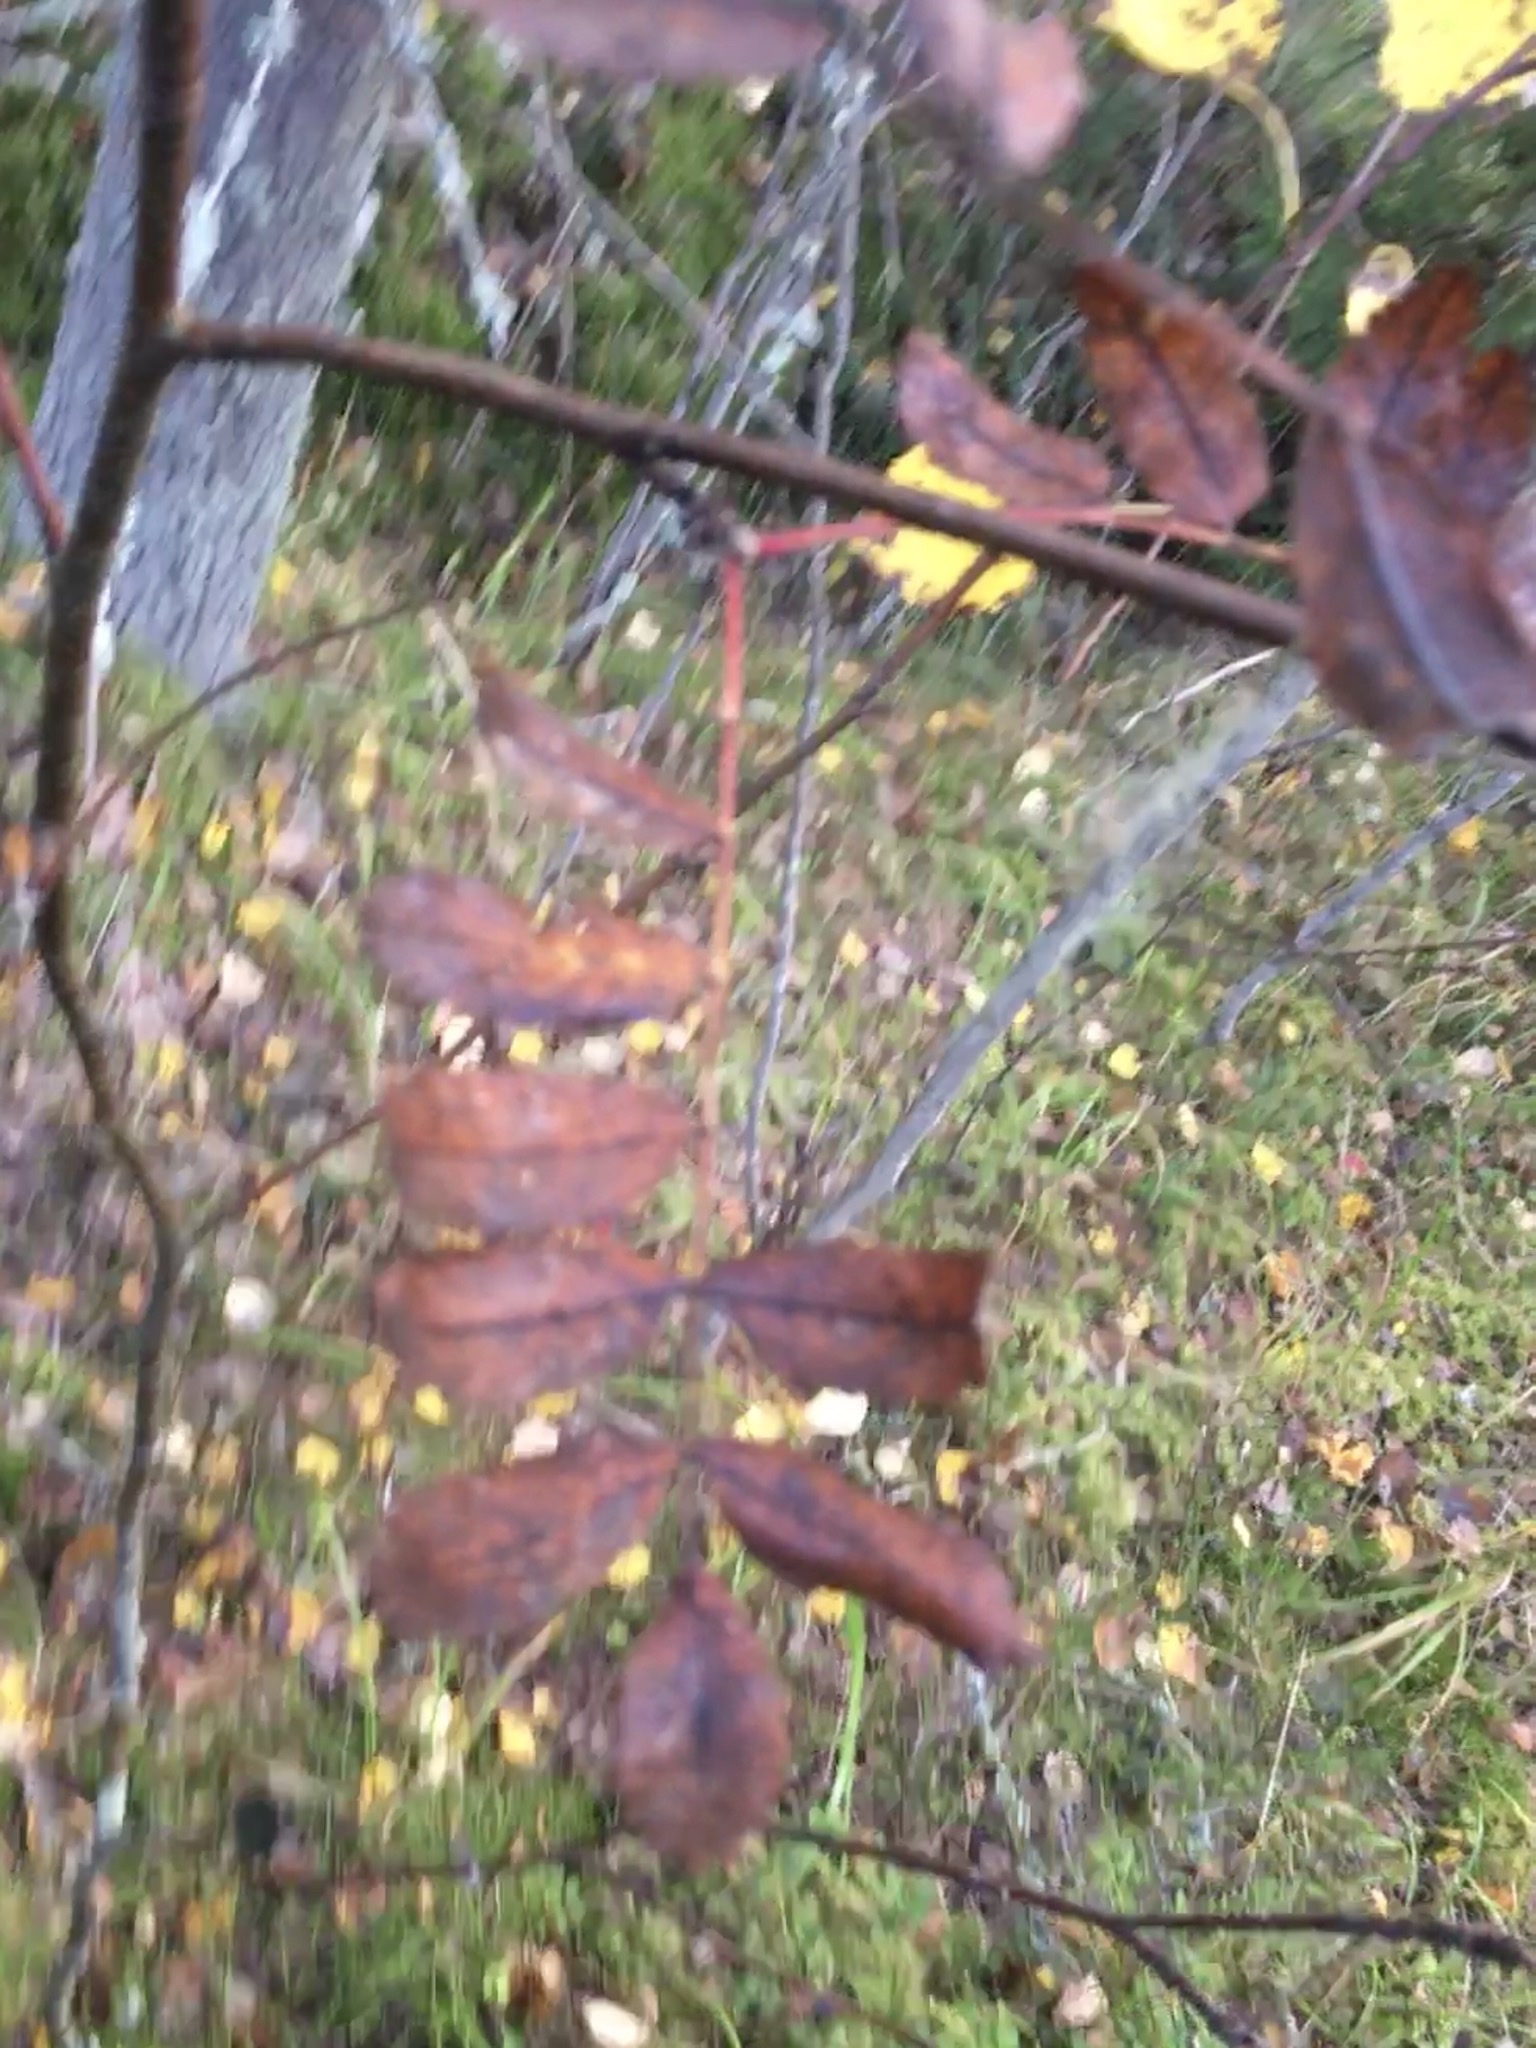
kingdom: Plantae
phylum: Tracheophyta
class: Magnoliopsida
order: Rosales
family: Rosaceae
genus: Sorbus
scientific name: Sorbus aucuparia
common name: Rowan
